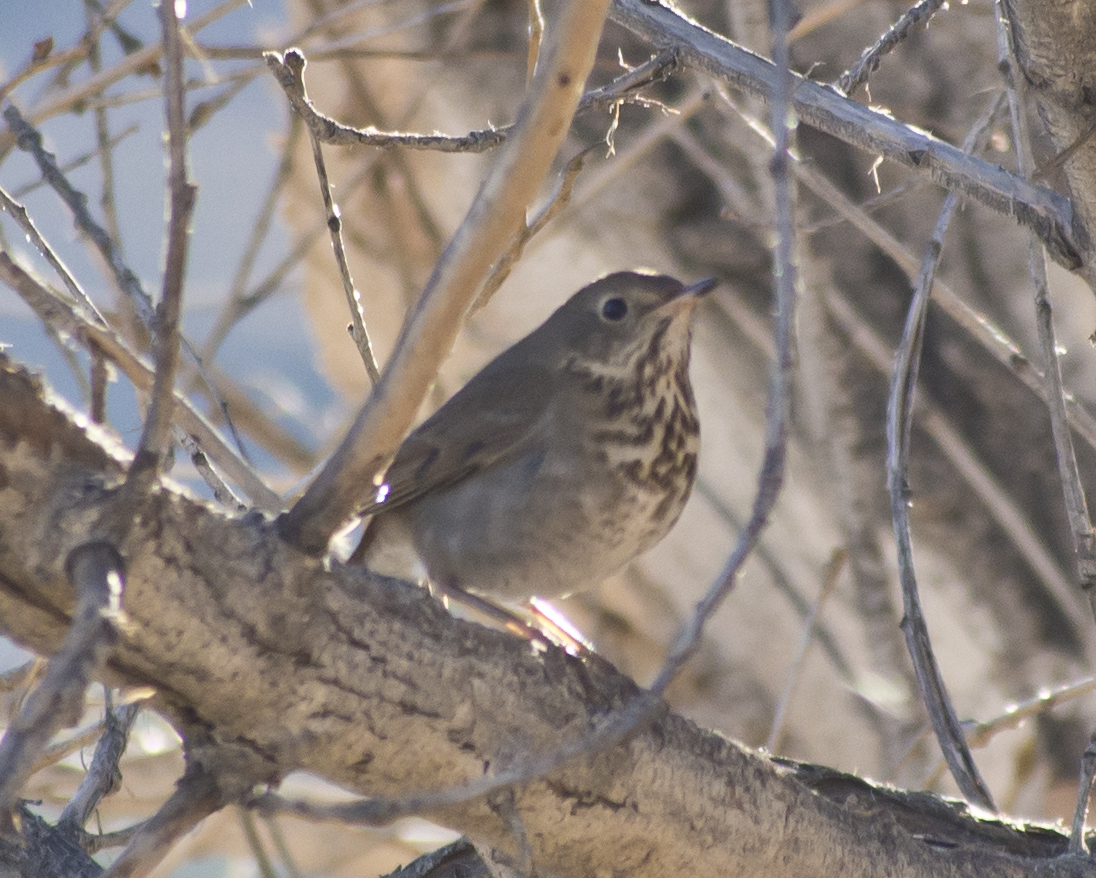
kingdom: Animalia
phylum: Chordata
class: Aves
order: Passeriformes
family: Turdidae
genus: Catharus
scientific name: Catharus guttatus
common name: Hermit thrush
